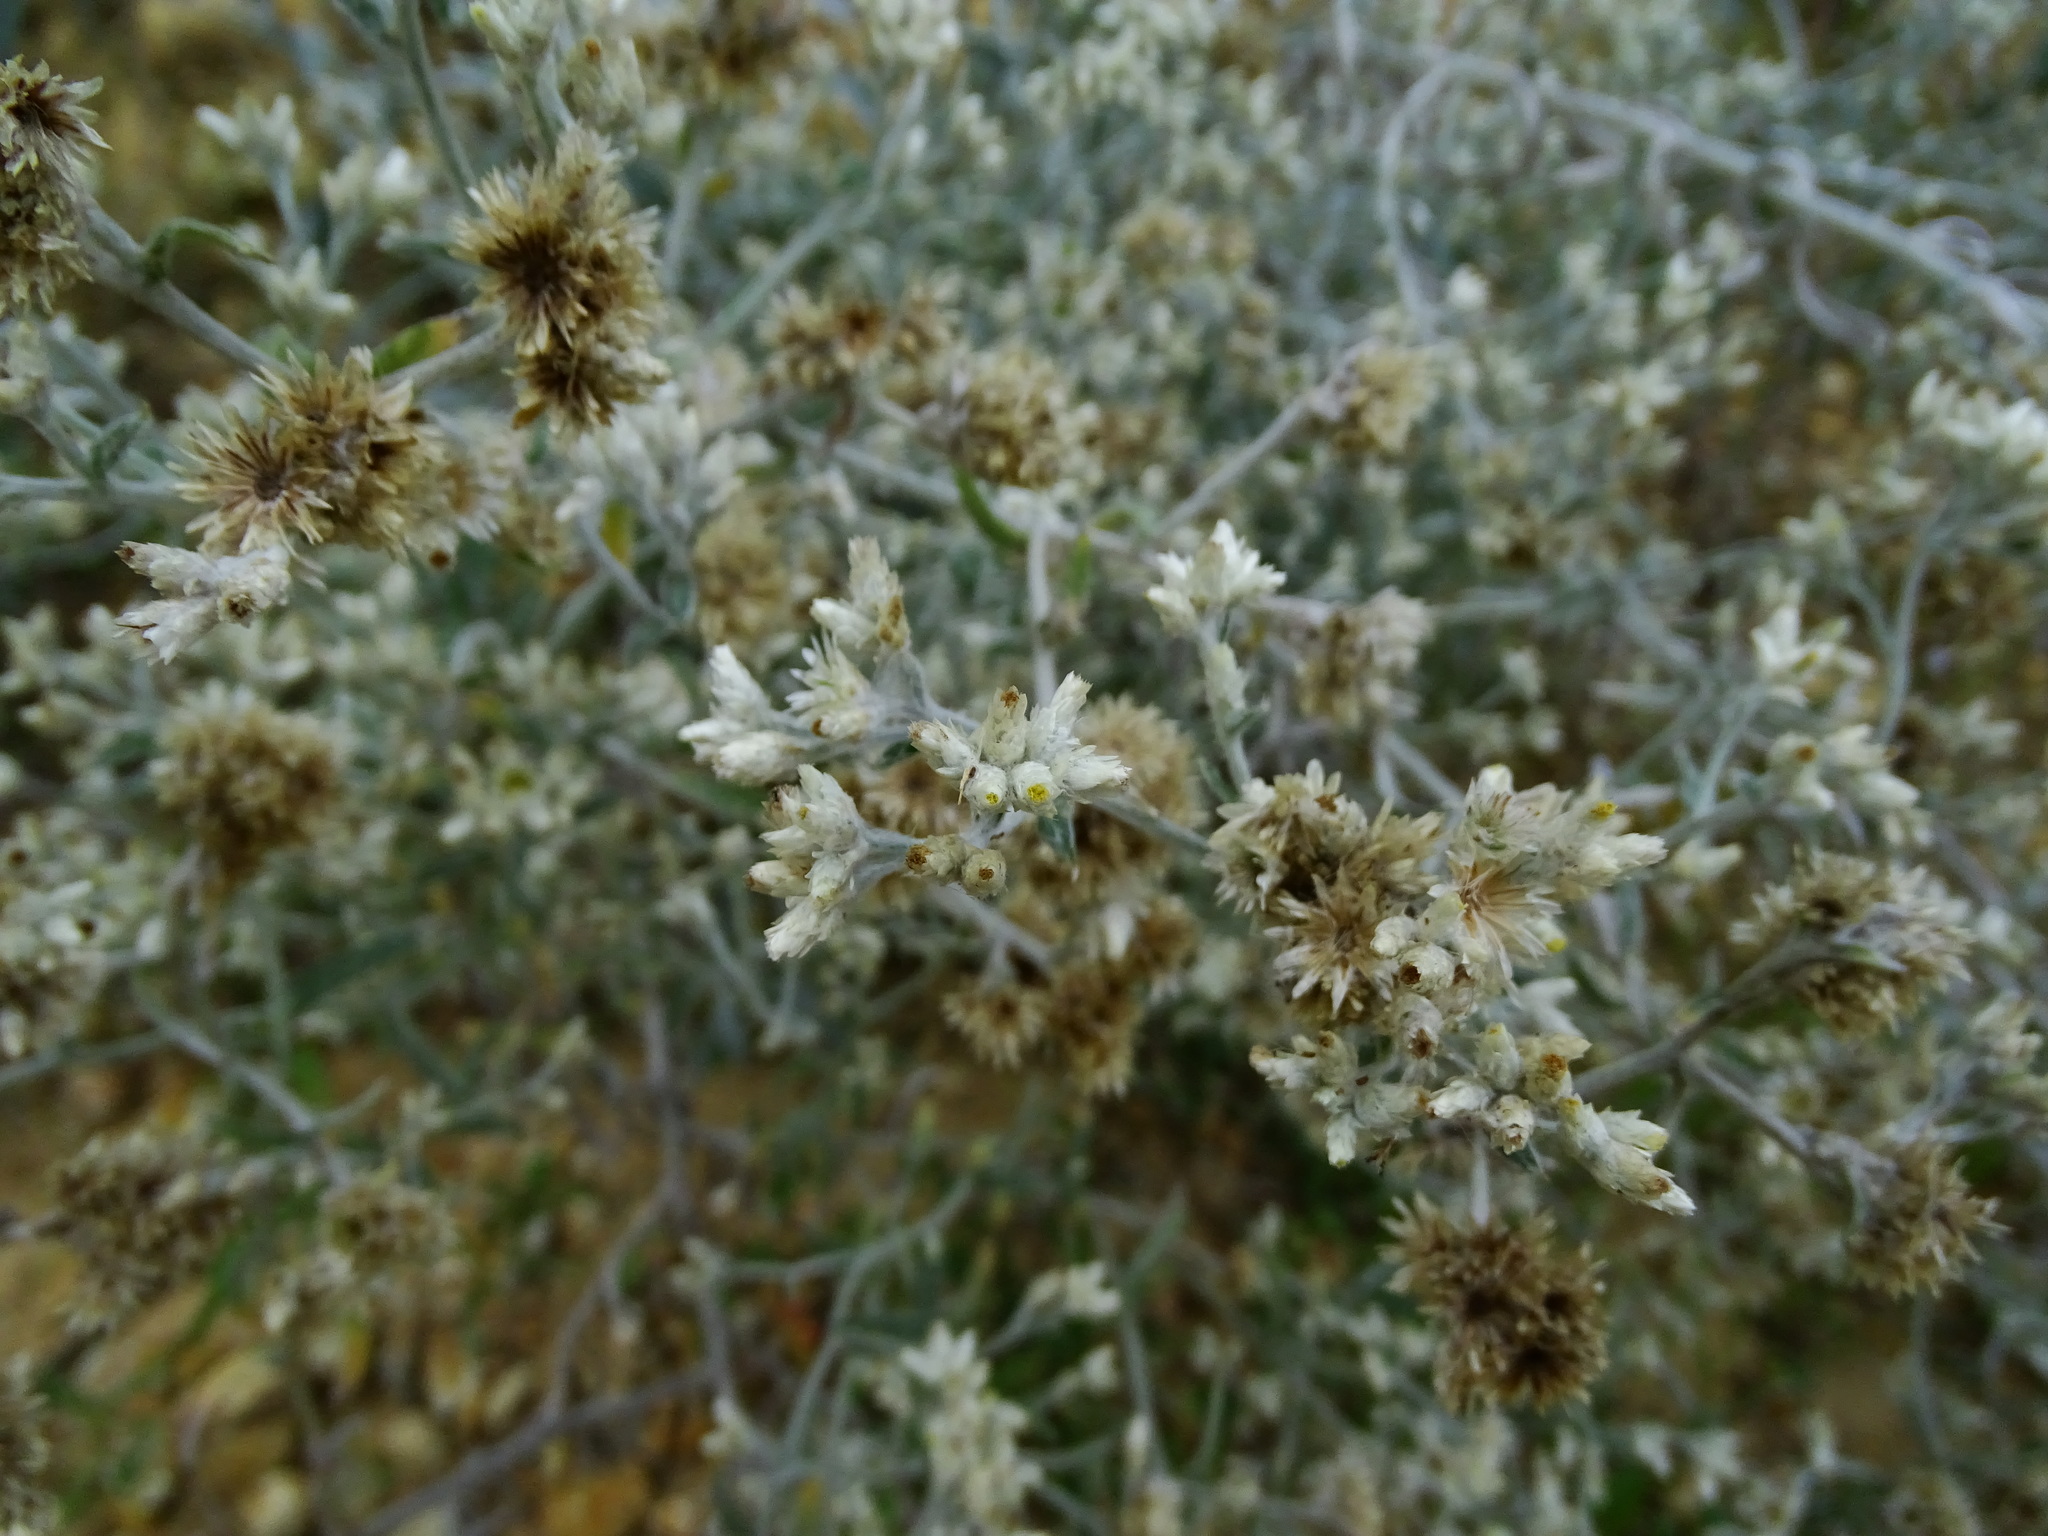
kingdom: Plantae
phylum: Tracheophyta
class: Magnoliopsida
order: Asterales
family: Asteraceae
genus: Pseudognaphalium
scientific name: Pseudognaphalium microcephalum
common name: San diego rabbit-tobacco
